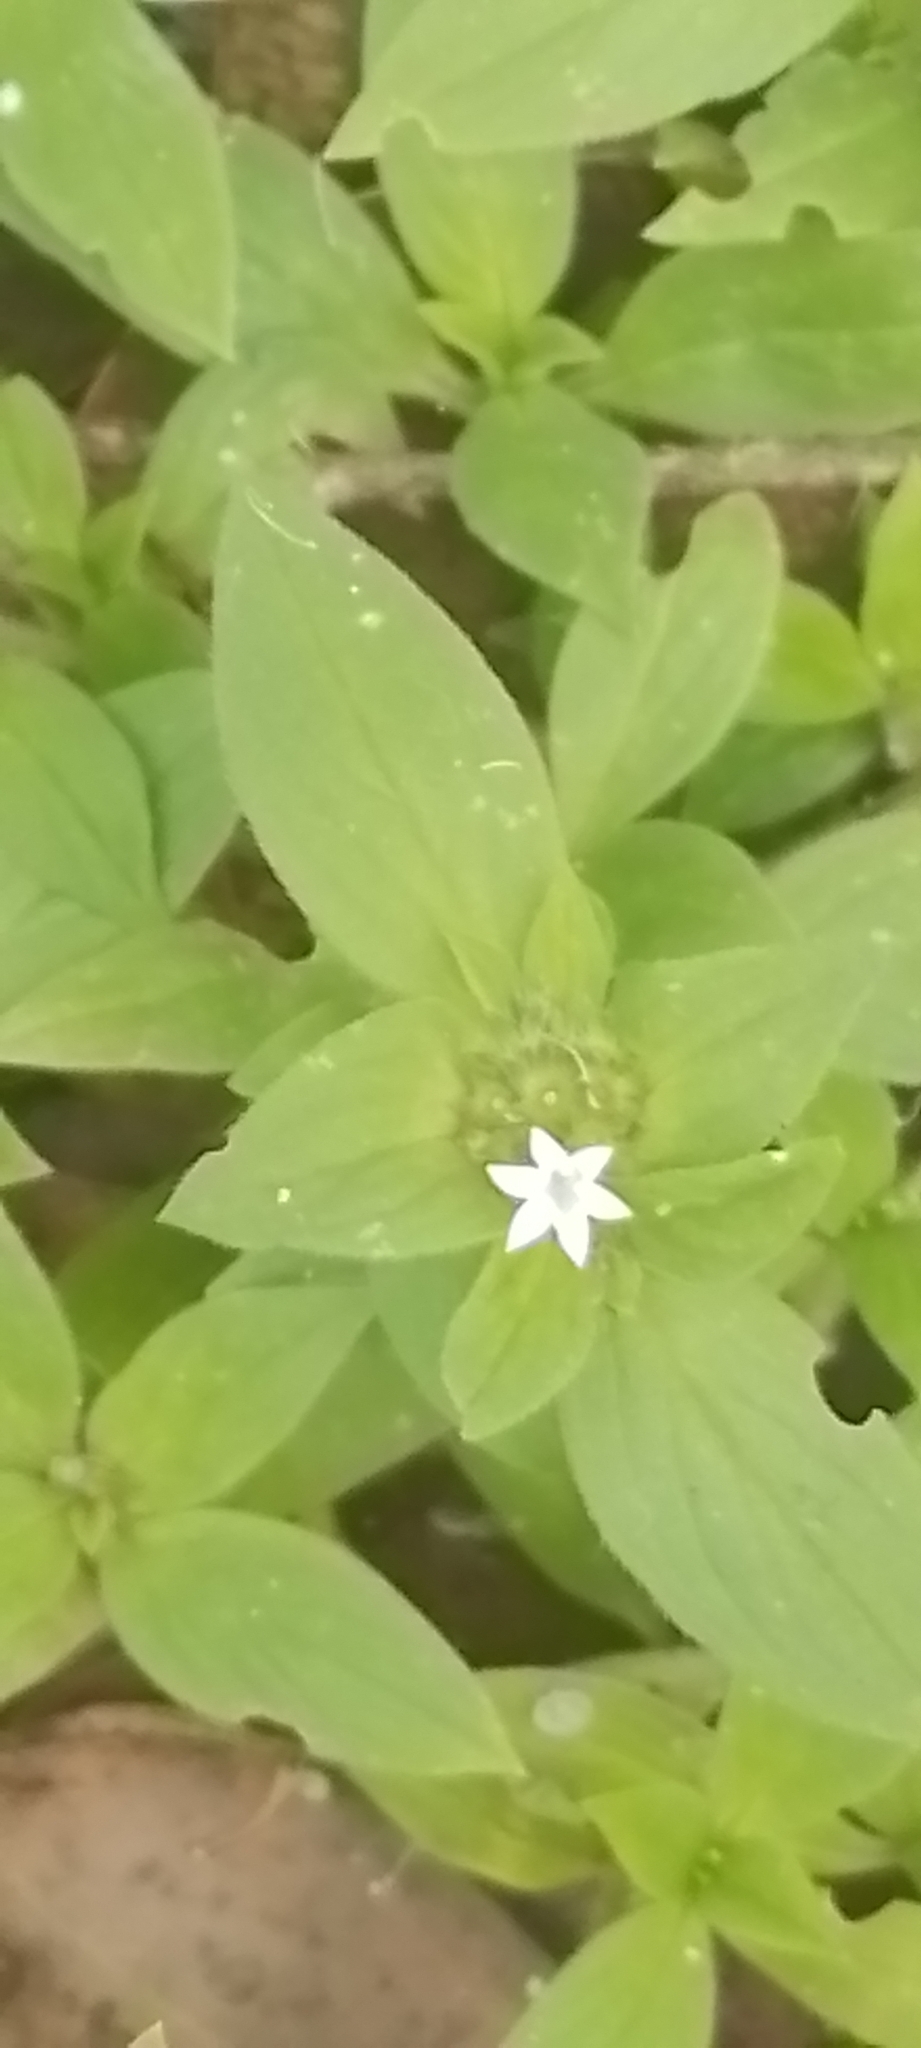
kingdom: Plantae
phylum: Tracheophyta
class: Magnoliopsida
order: Gentianales
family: Rubiaceae
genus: Richardia
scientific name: Richardia brasiliensis
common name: Tropical mexican clover
